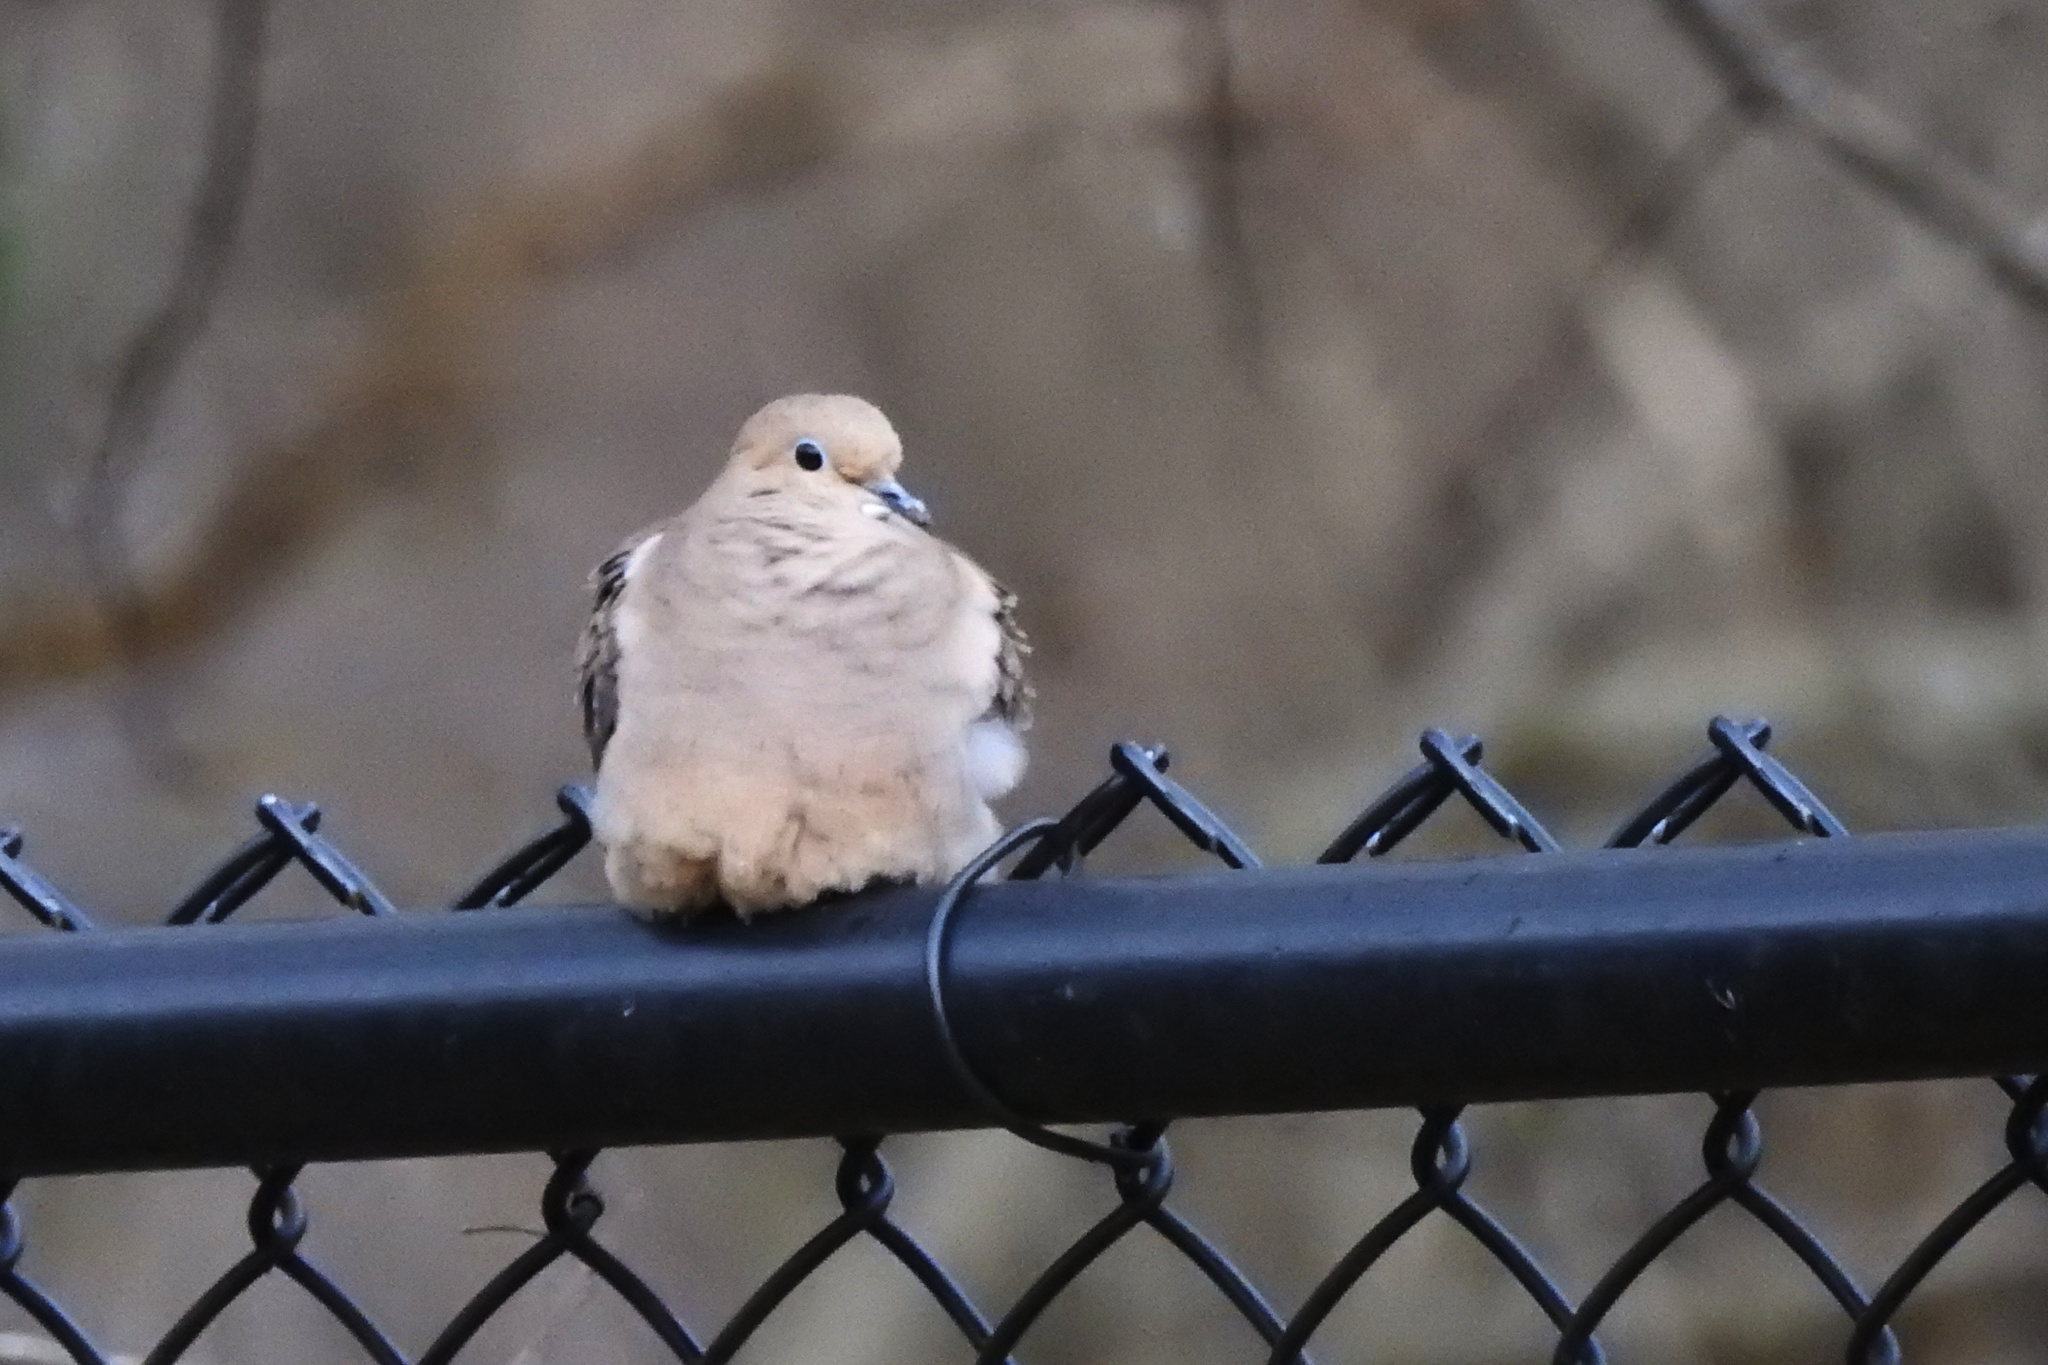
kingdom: Animalia
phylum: Chordata
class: Aves
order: Columbiformes
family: Columbidae
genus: Zenaida
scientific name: Zenaida macroura
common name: Mourning dove
